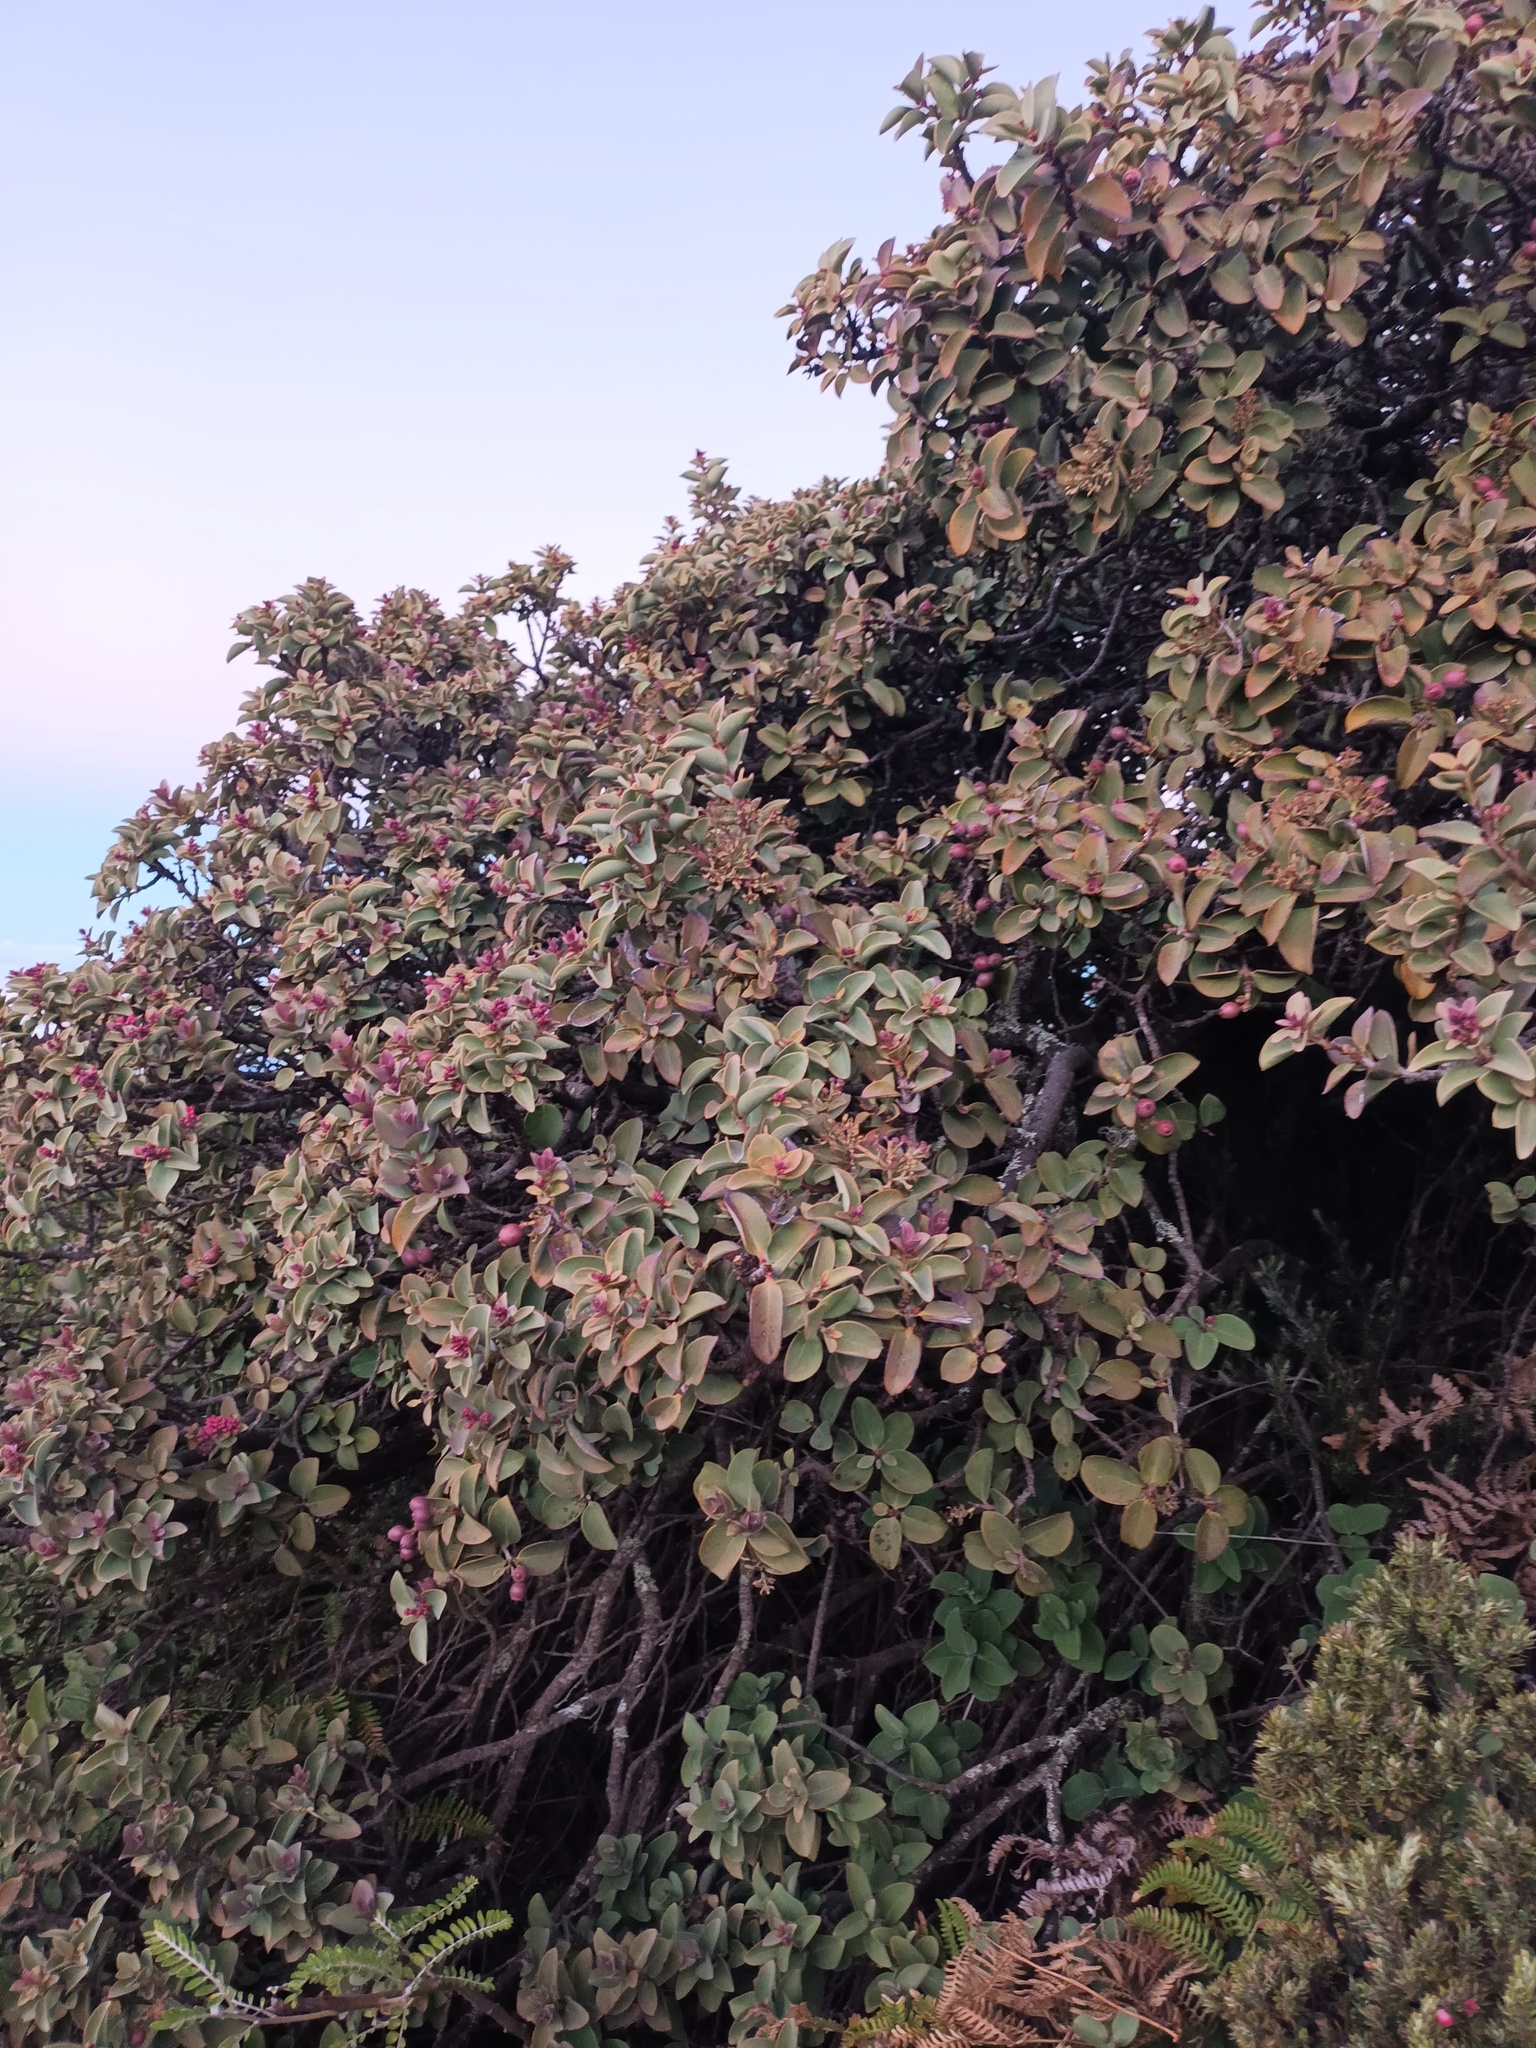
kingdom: Plantae
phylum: Tracheophyta
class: Magnoliopsida
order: Santalales
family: Santalaceae
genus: Santalum
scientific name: Santalum haleakalae
